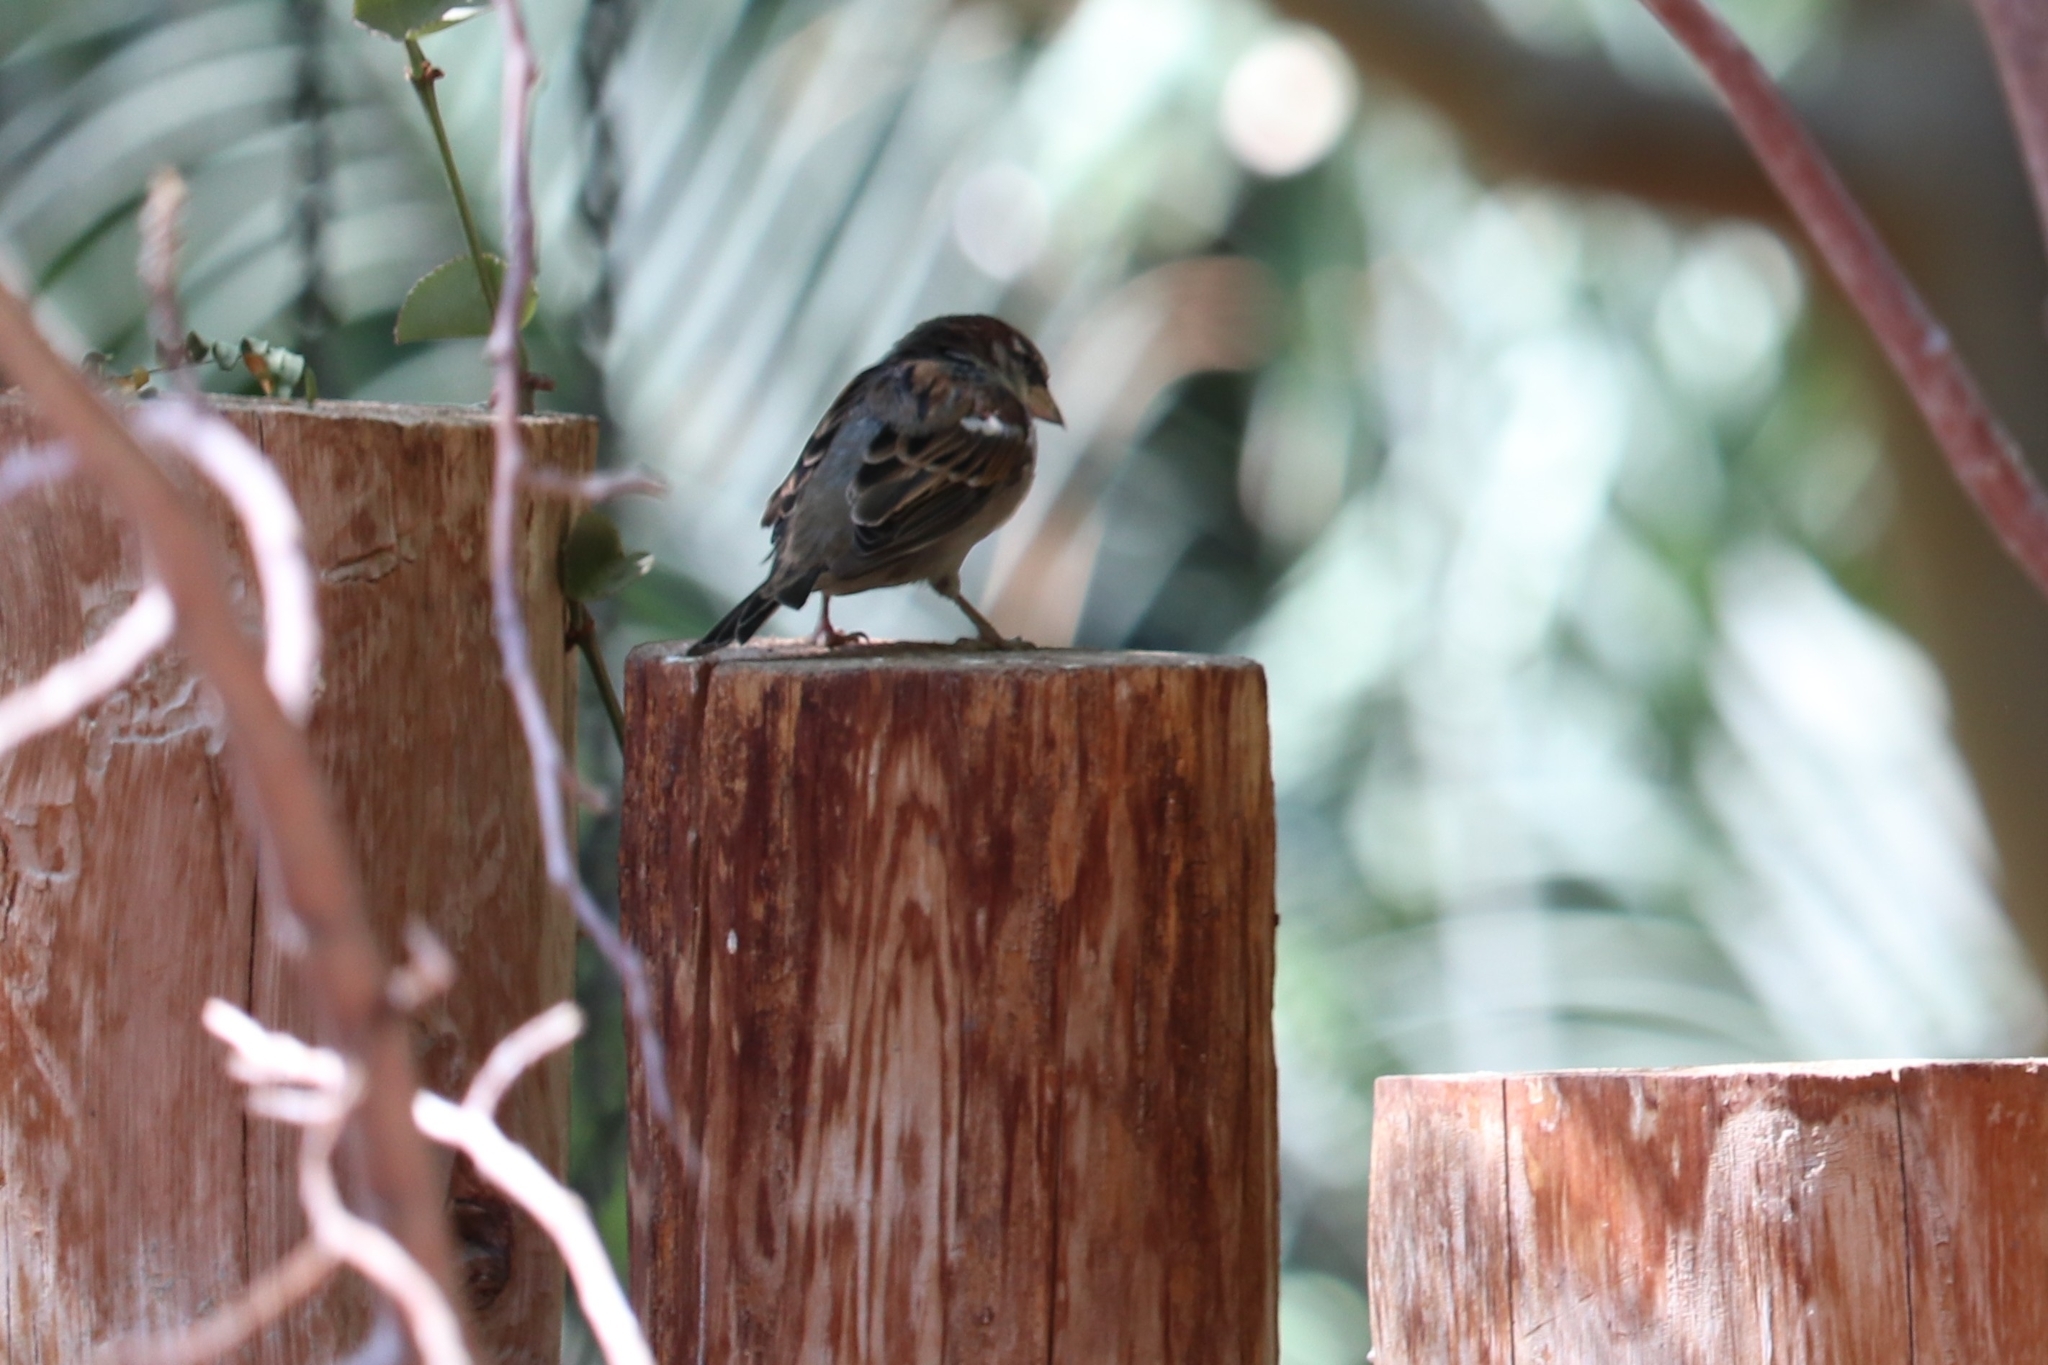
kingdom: Animalia
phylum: Chordata
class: Aves
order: Passeriformes
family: Passeridae
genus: Passer
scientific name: Passer domesticus
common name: House sparrow
